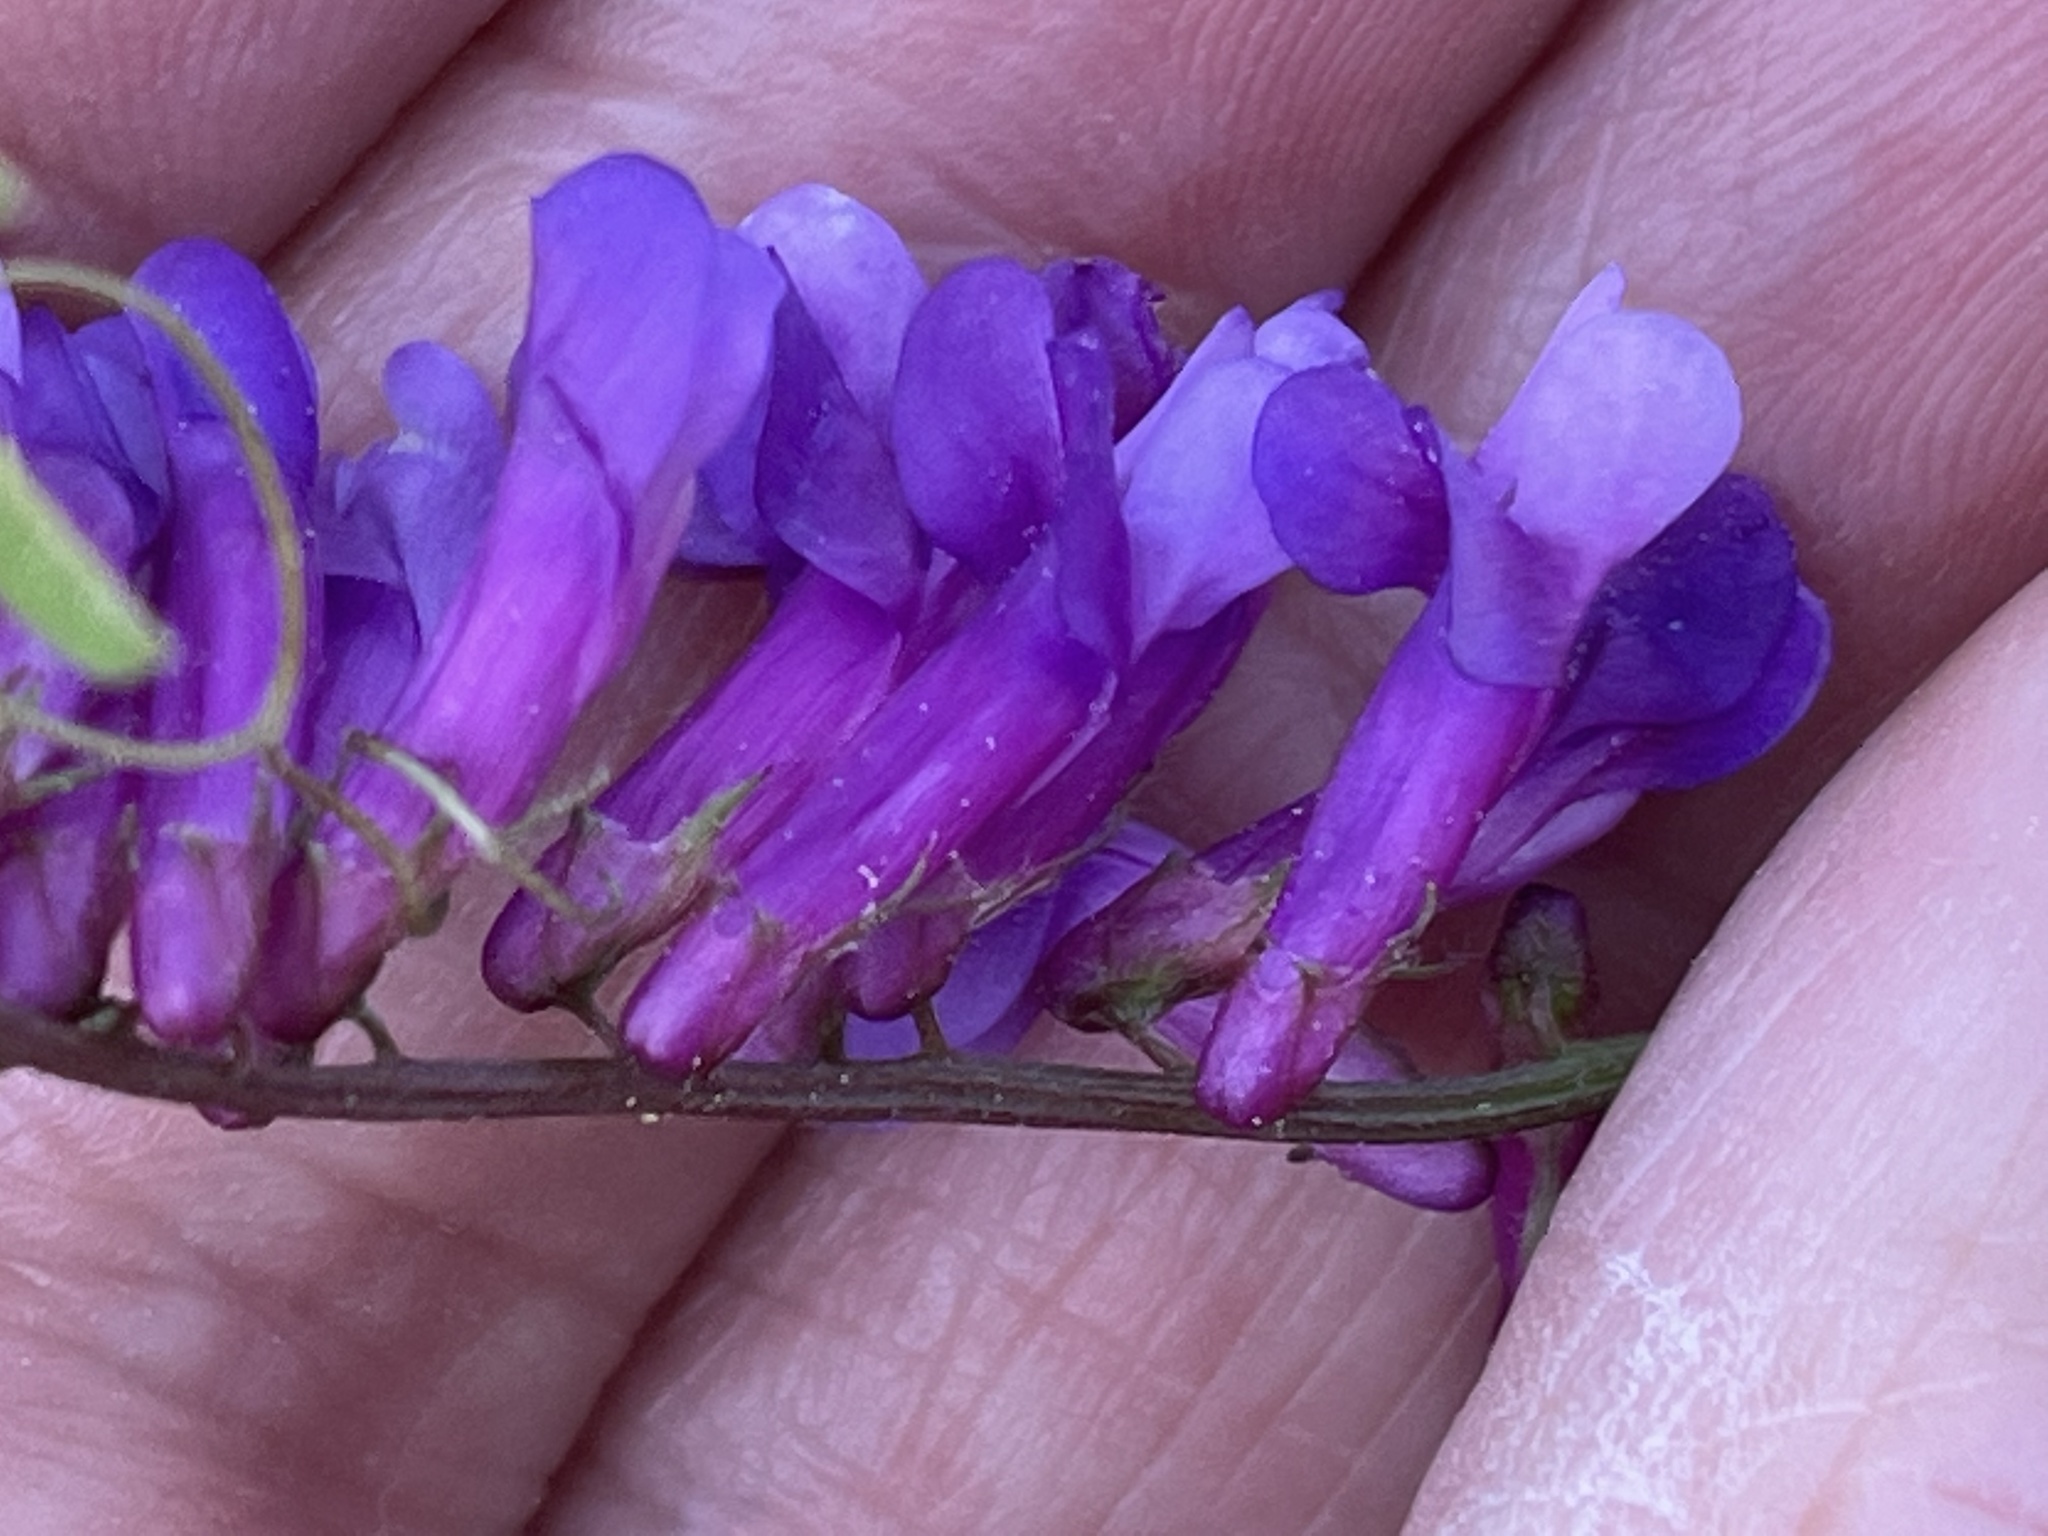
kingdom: Plantae
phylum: Tracheophyta
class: Magnoliopsida
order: Fabales
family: Fabaceae
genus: Vicia
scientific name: Vicia villosa
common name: Fodder vetch
